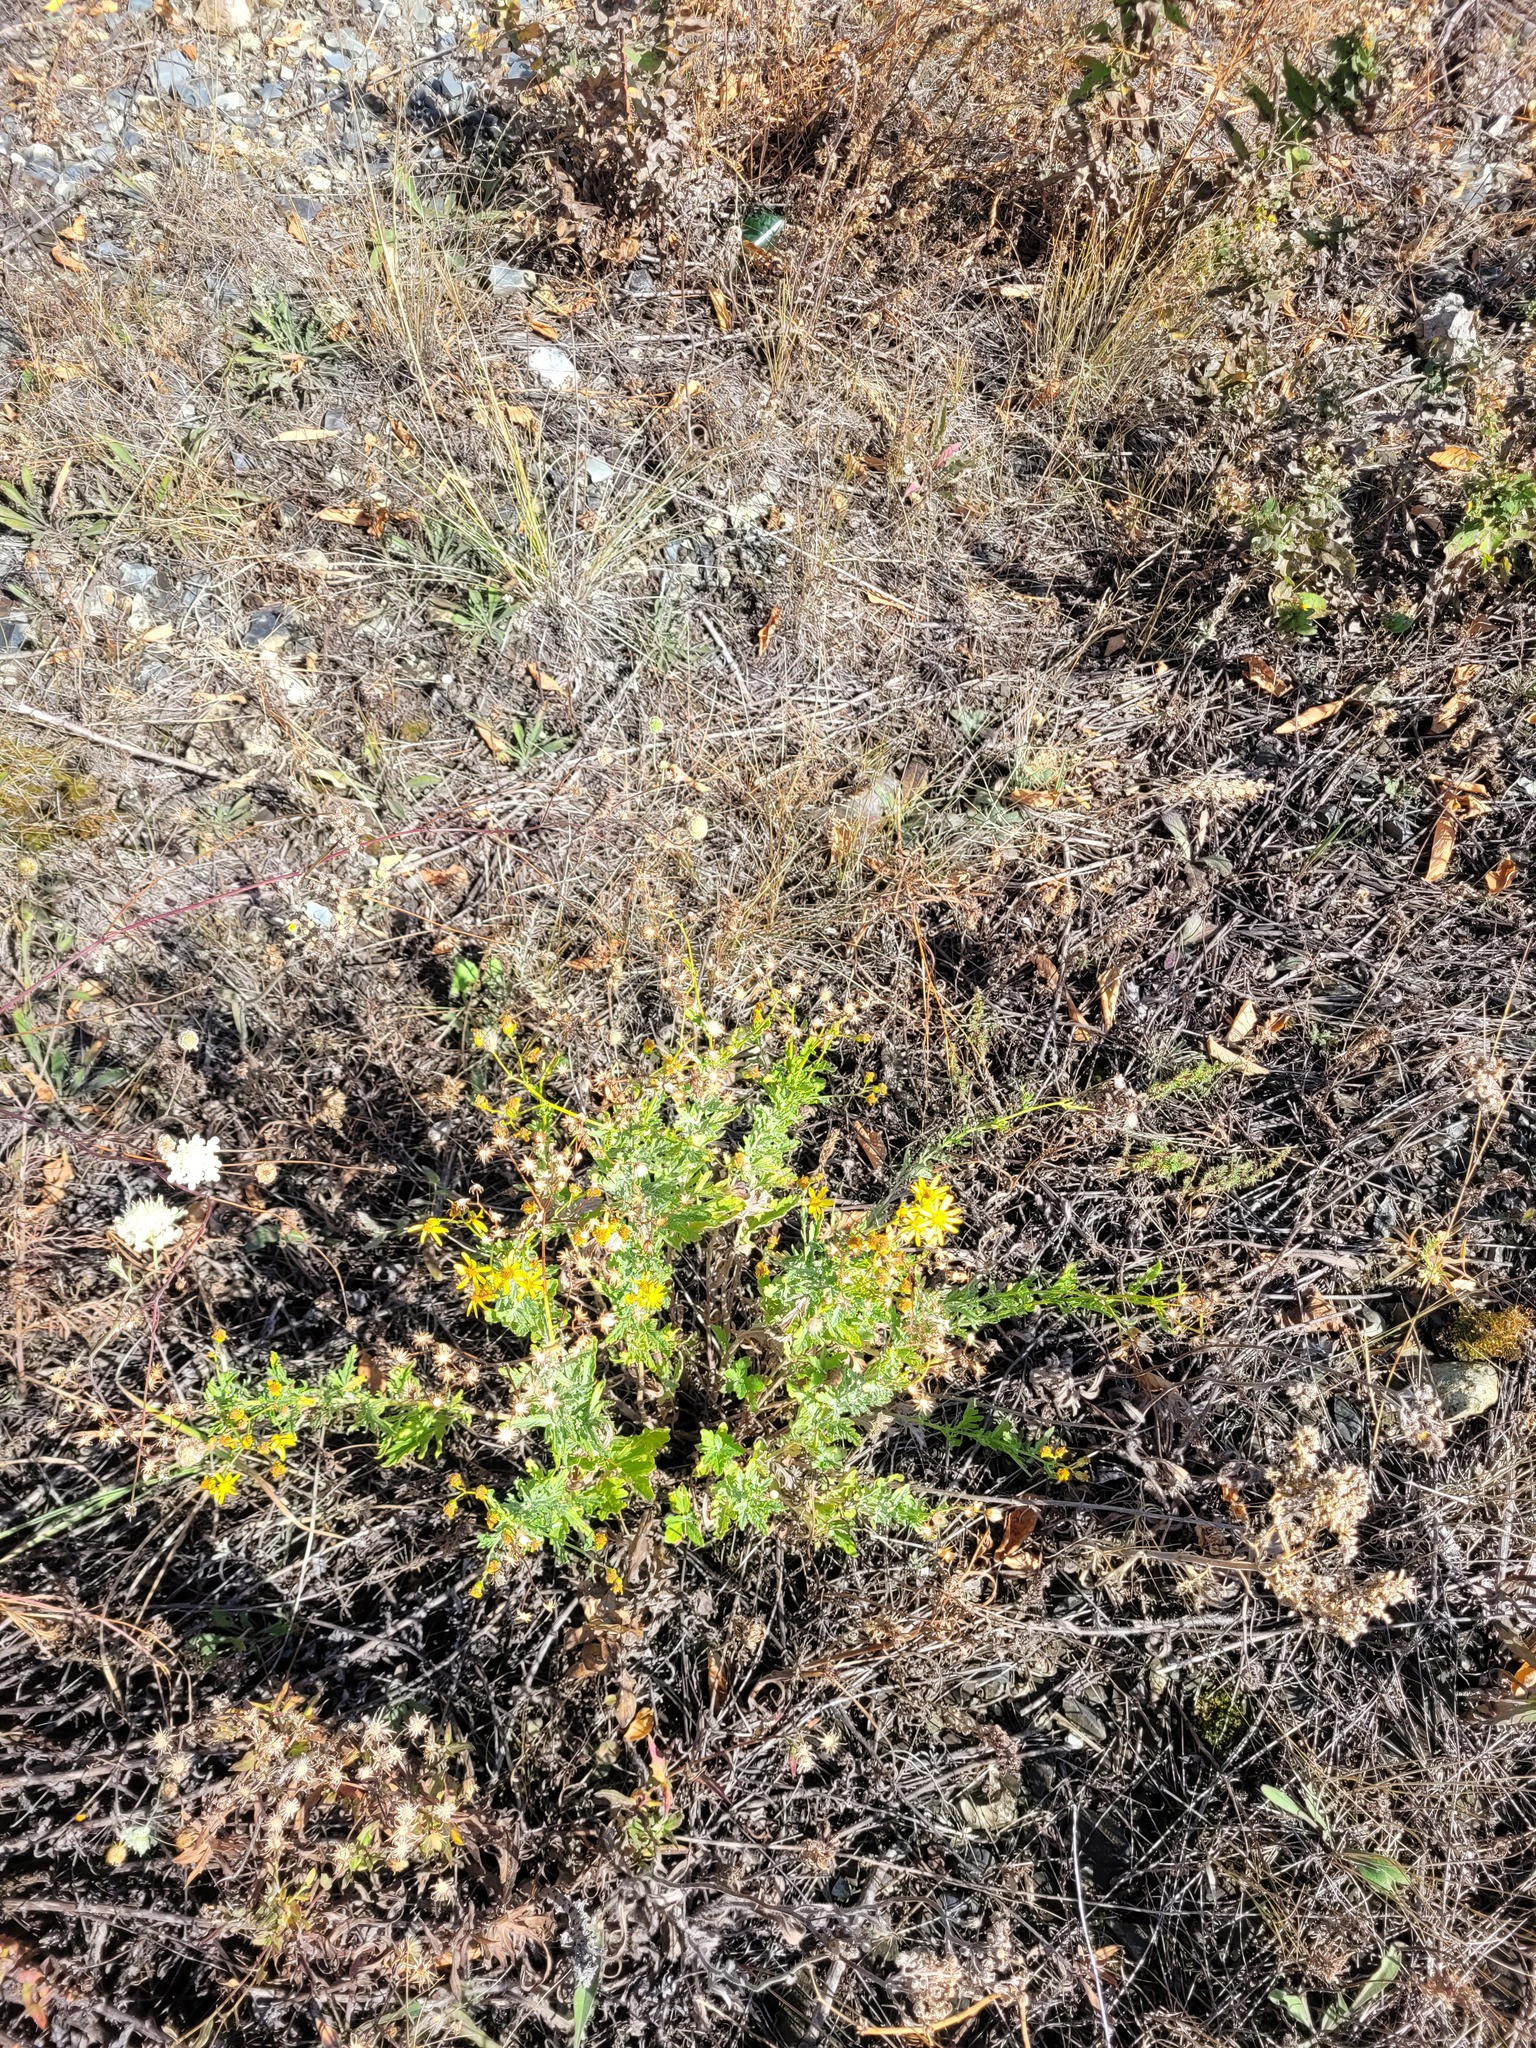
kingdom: Plantae
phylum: Tracheophyta
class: Magnoliopsida
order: Asterales
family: Asteraceae
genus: Jacobaea
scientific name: Jacobaea erucifolia
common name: Hoary ragwort
